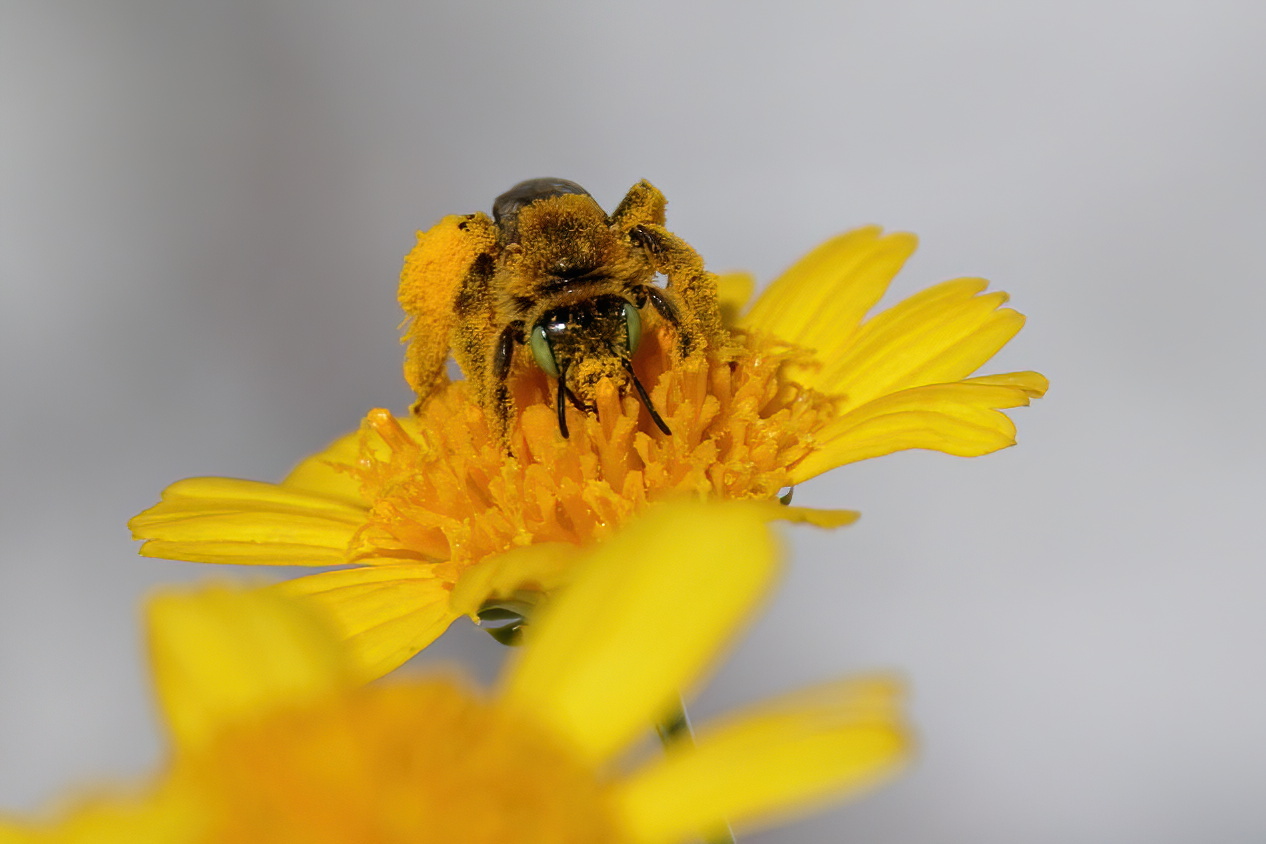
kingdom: Animalia
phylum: Arthropoda
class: Insecta
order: Hymenoptera
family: Melittidae
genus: Hesperapis
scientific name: Hesperapis oraria
